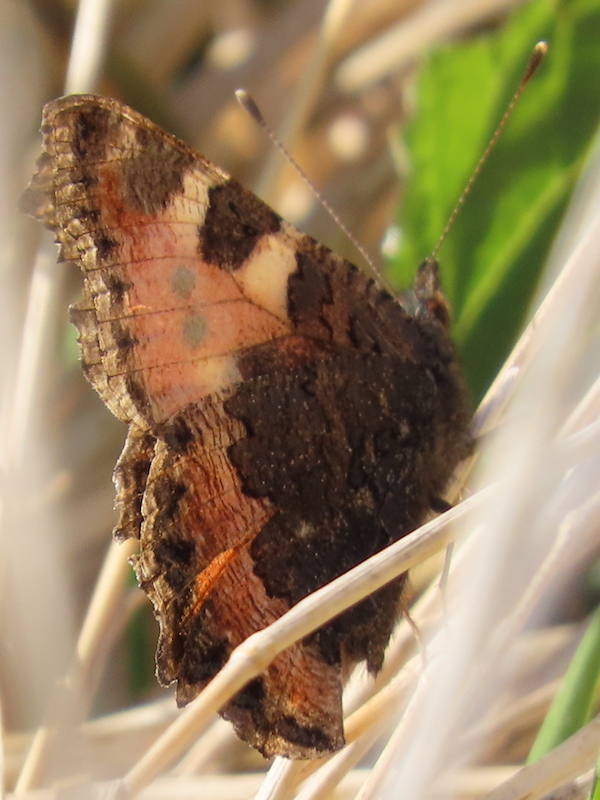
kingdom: Animalia
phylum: Arthropoda
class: Insecta
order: Lepidoptera
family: Nymphalidae
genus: Aglais
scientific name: Aglais urticae
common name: Small tortoiseshell
